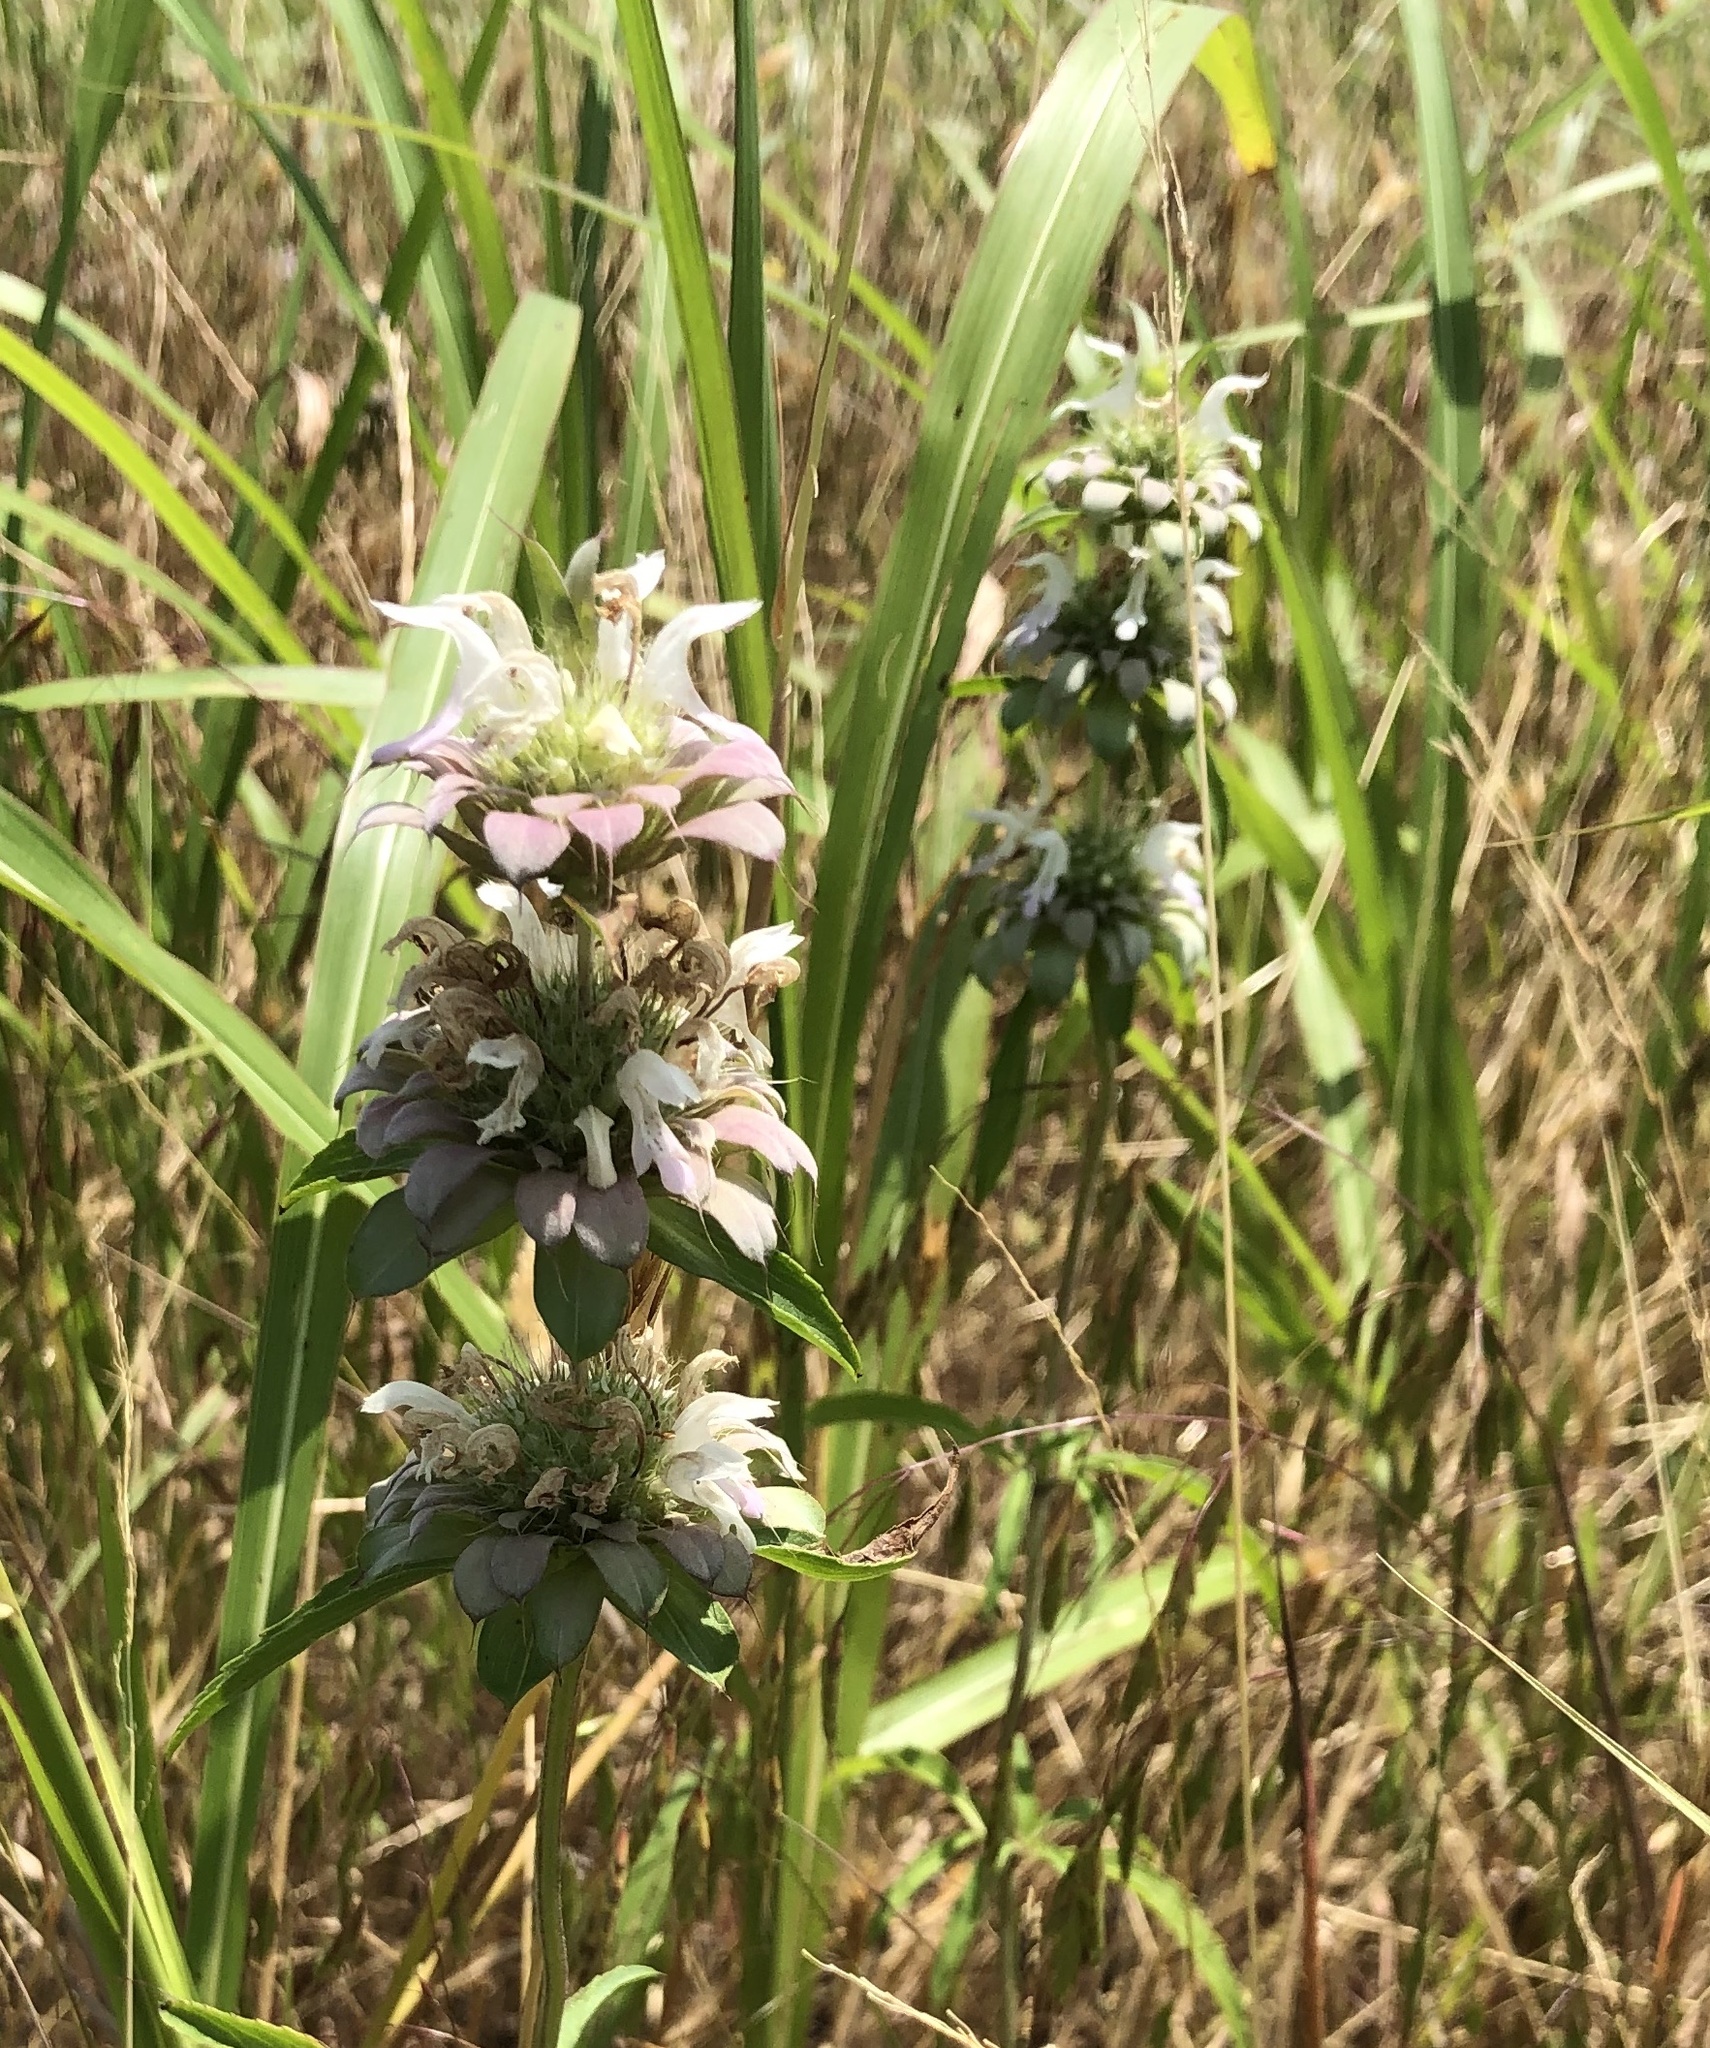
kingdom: Plantae
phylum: Tracheophyta
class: Magnoliopsida
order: Lamiales
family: Lamiaceae
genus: Monarda
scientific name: Monarda citriodora
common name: Lemon beebalm
